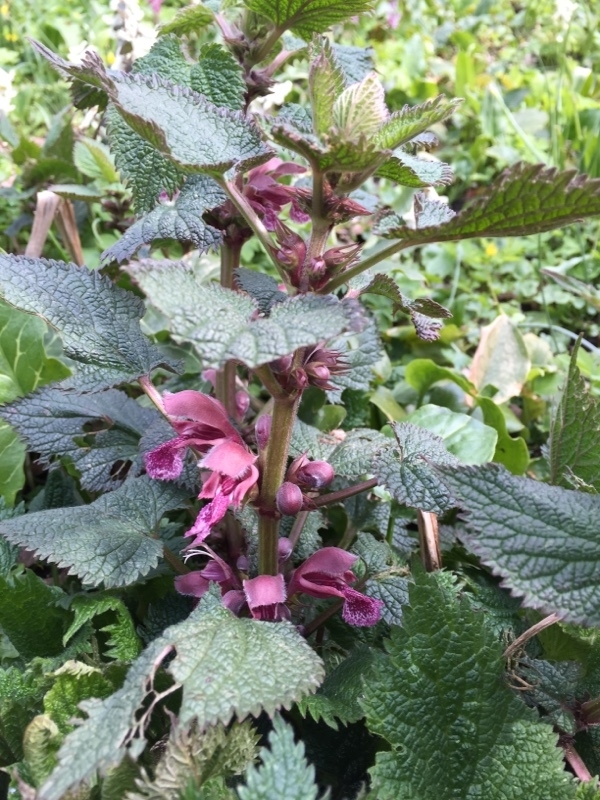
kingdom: Plantae
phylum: Tracheophyta
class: Magnoliopsida
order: Lamiales
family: Lamiaceae
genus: Lamium
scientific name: Lamium orvala
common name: Balm-leaved archangel
